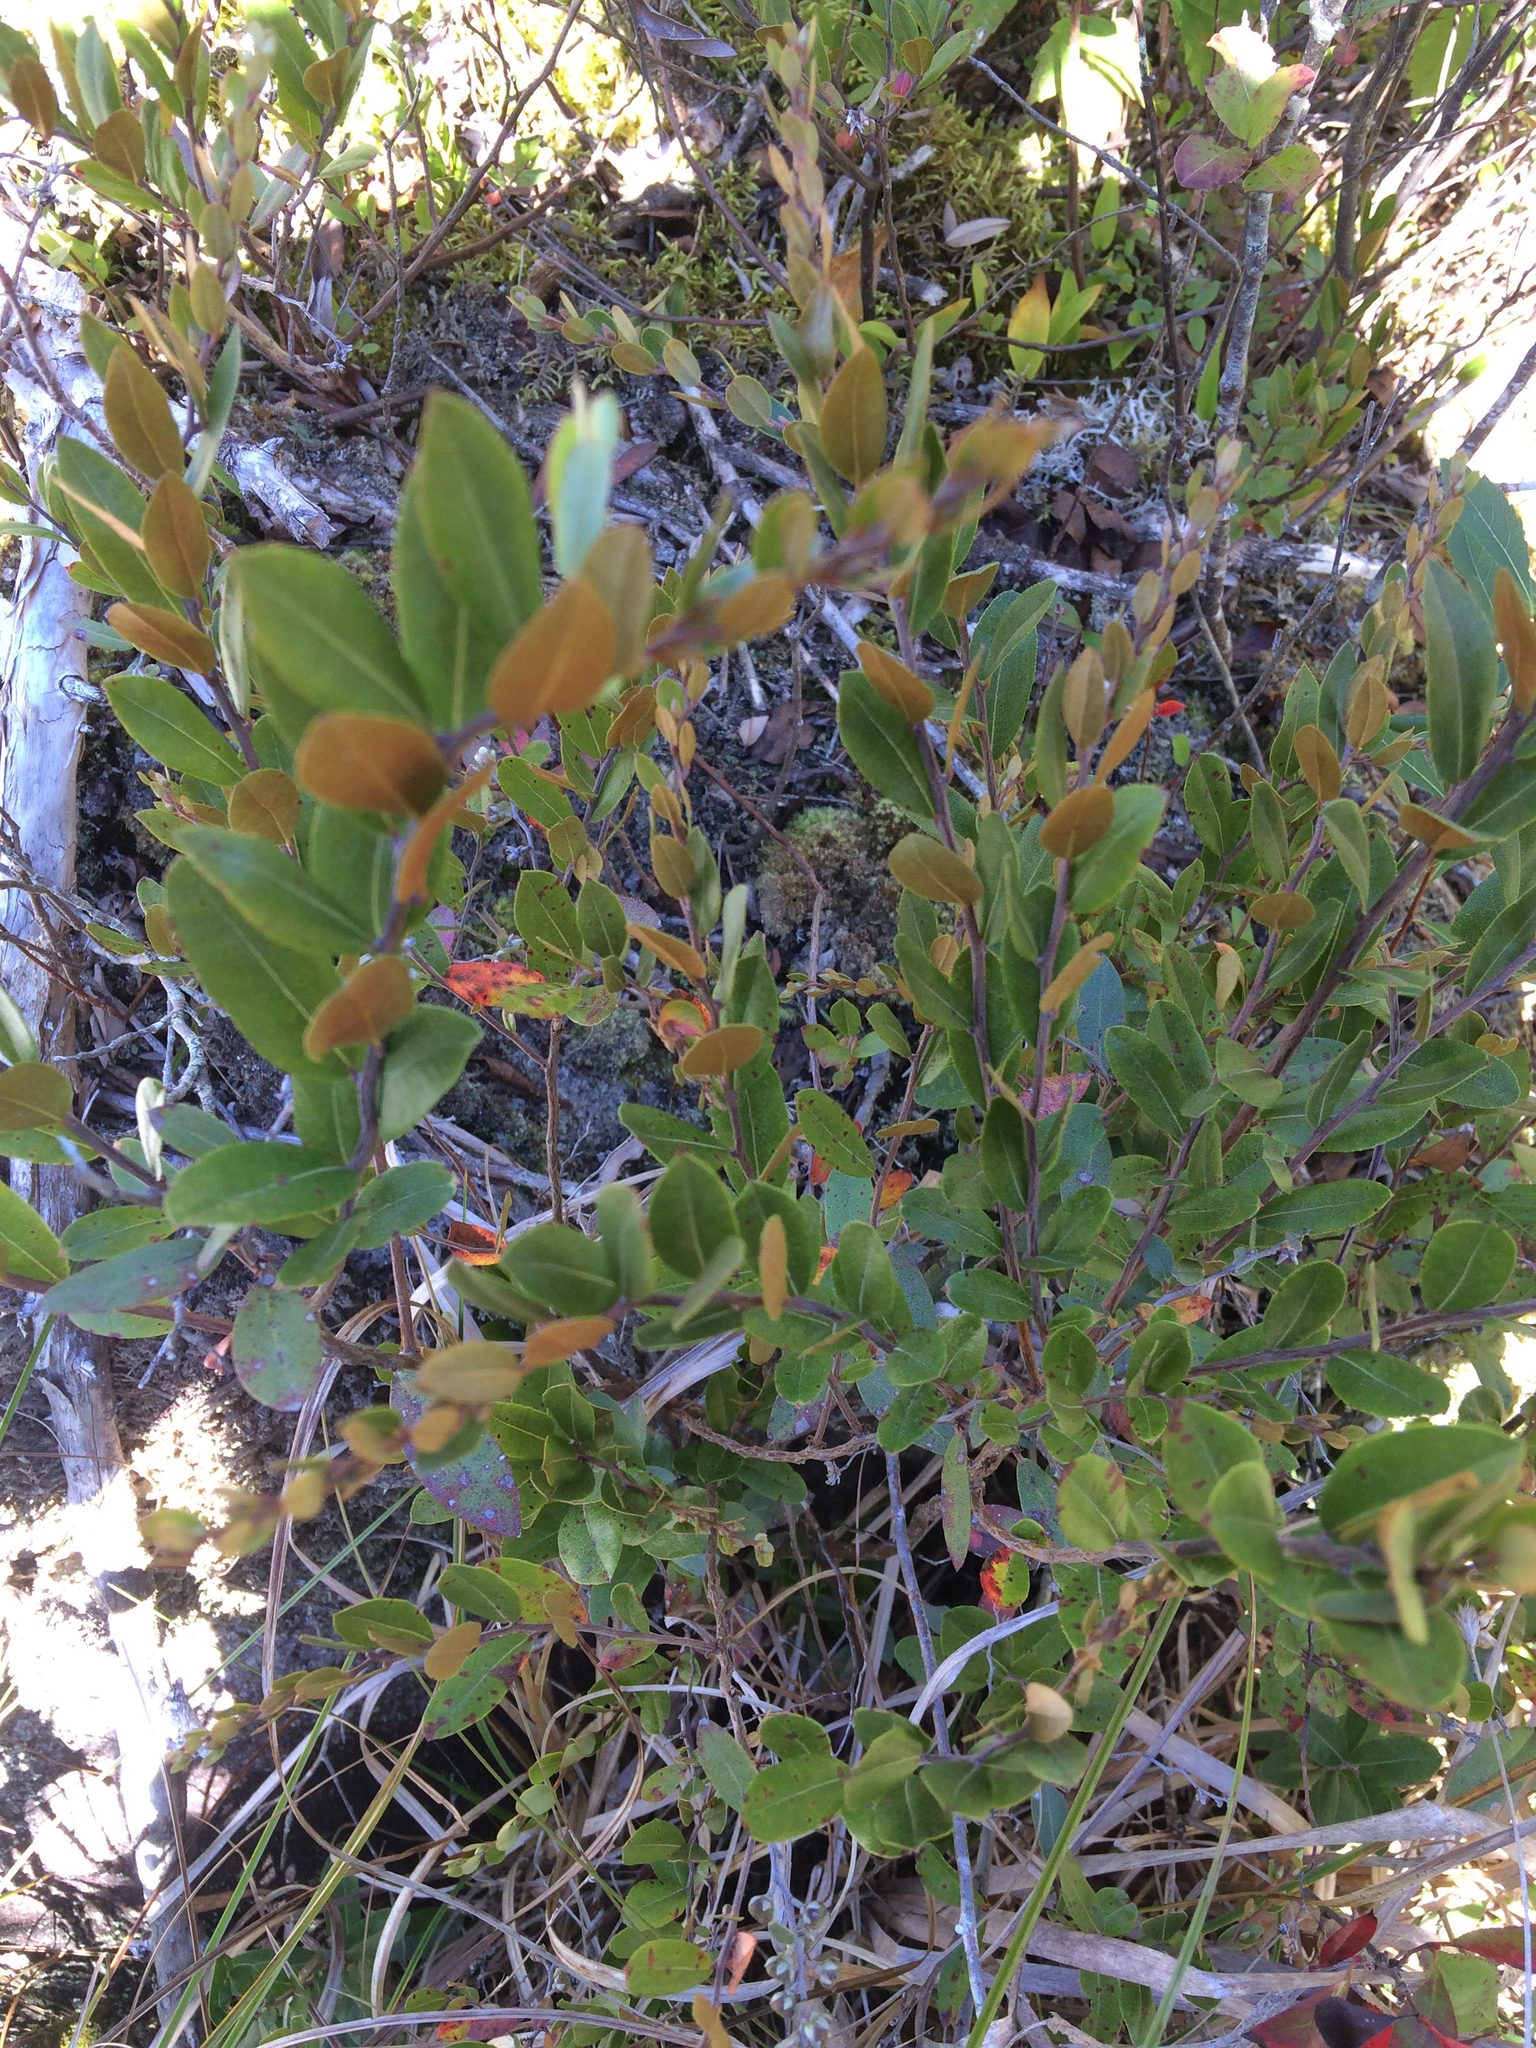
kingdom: Plantae
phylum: Tracheophyta
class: Magnoliopsida
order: Ericales
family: Ericaceae
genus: Chamaedaphne
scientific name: Chamaedaphne calyculata
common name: Leatherleaf
